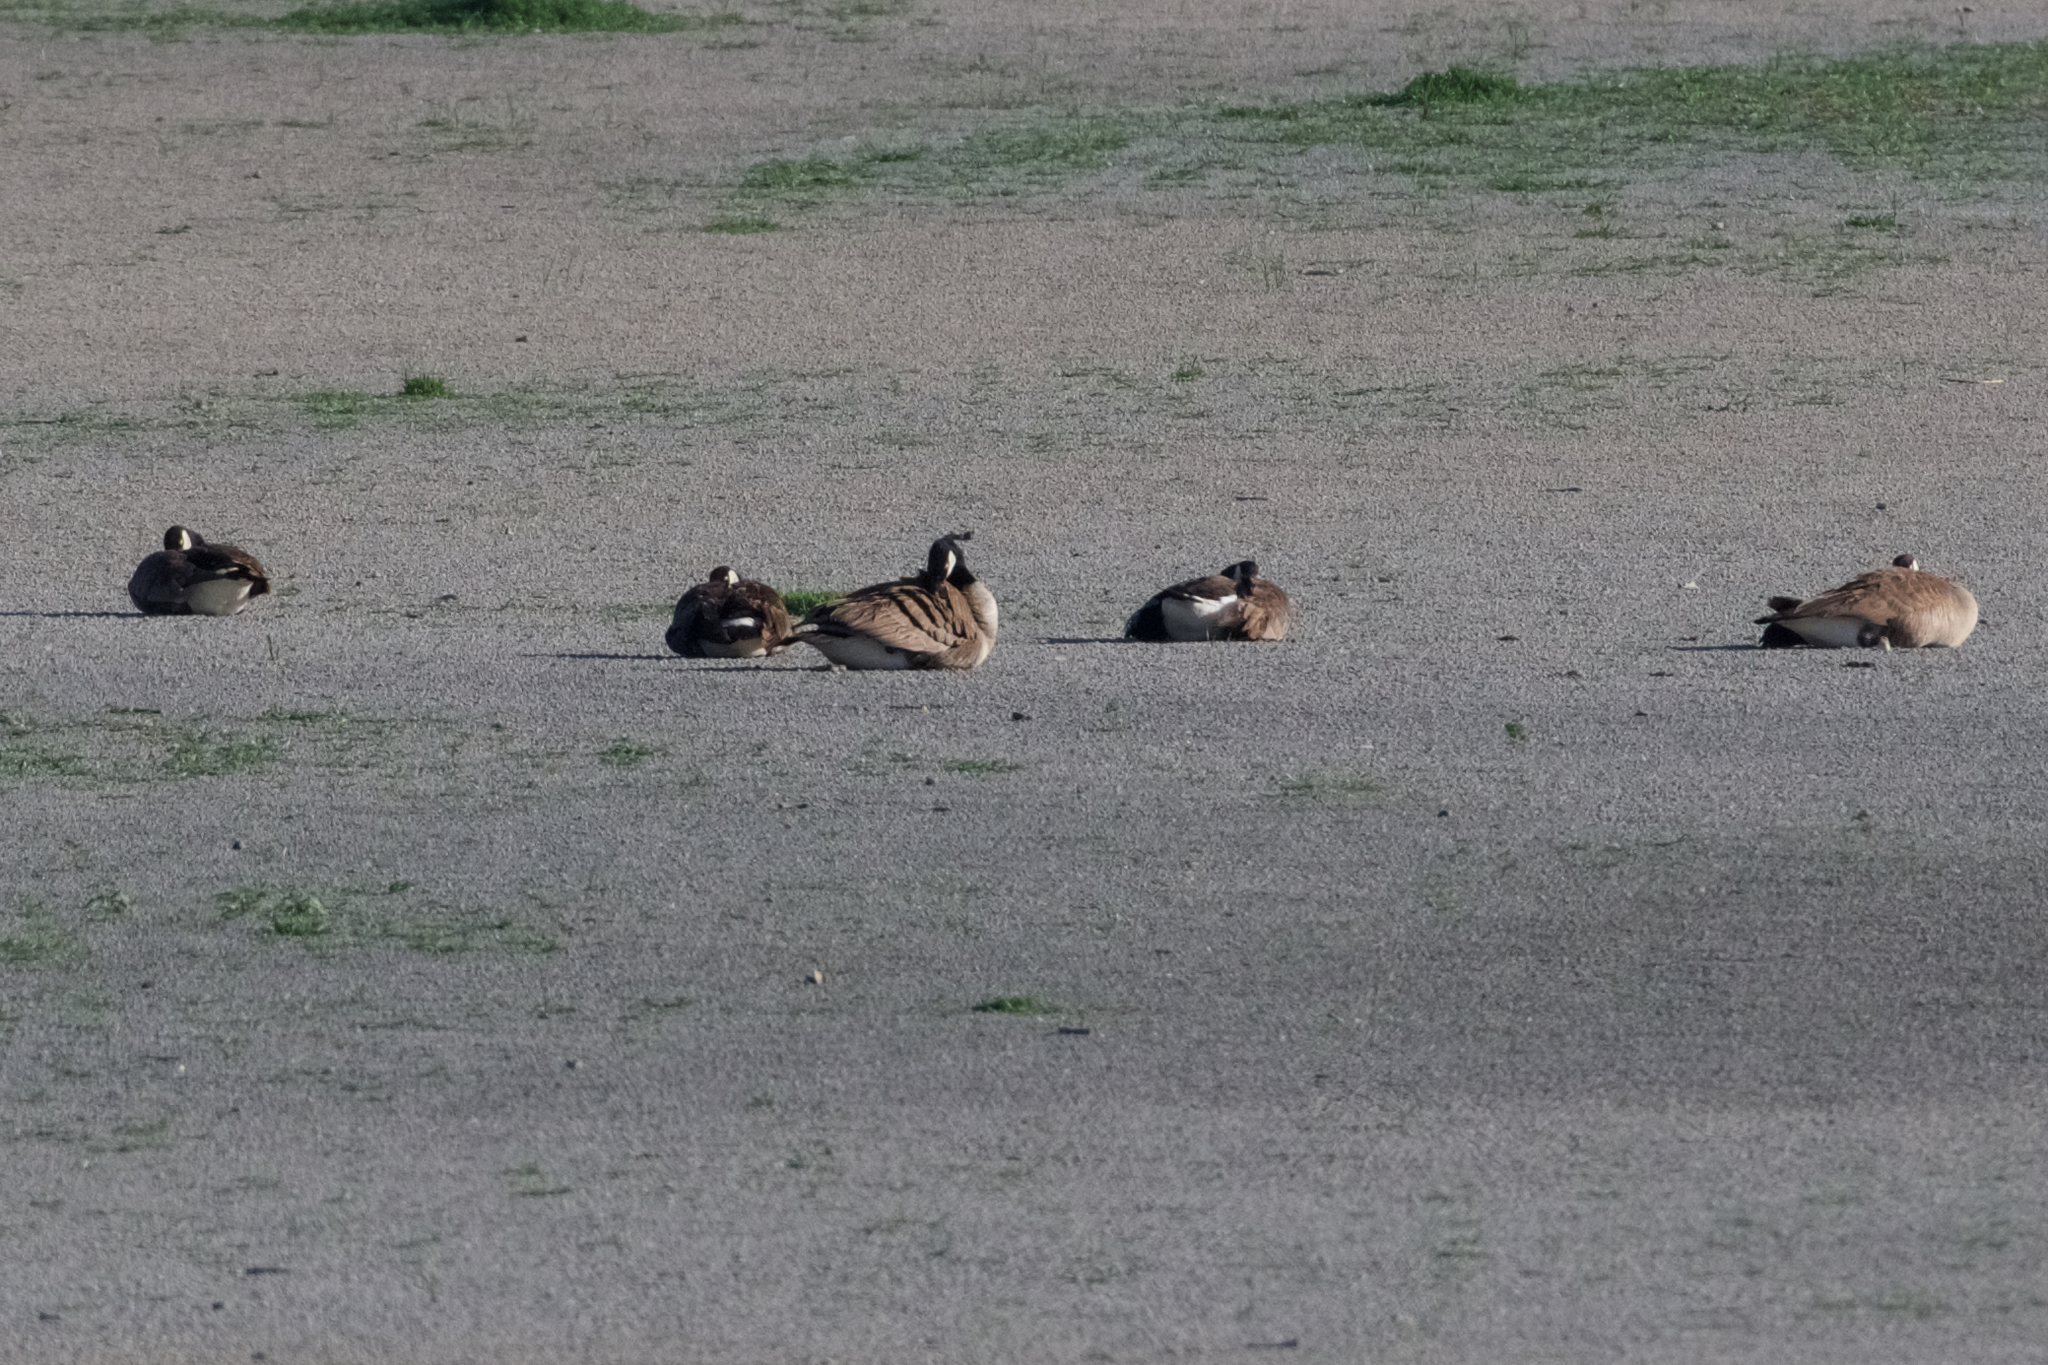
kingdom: Animalia
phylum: Chordata
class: Aves
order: Anseriformes
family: Anatidae
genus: Branta
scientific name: Branta canadensis
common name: Canada goose
